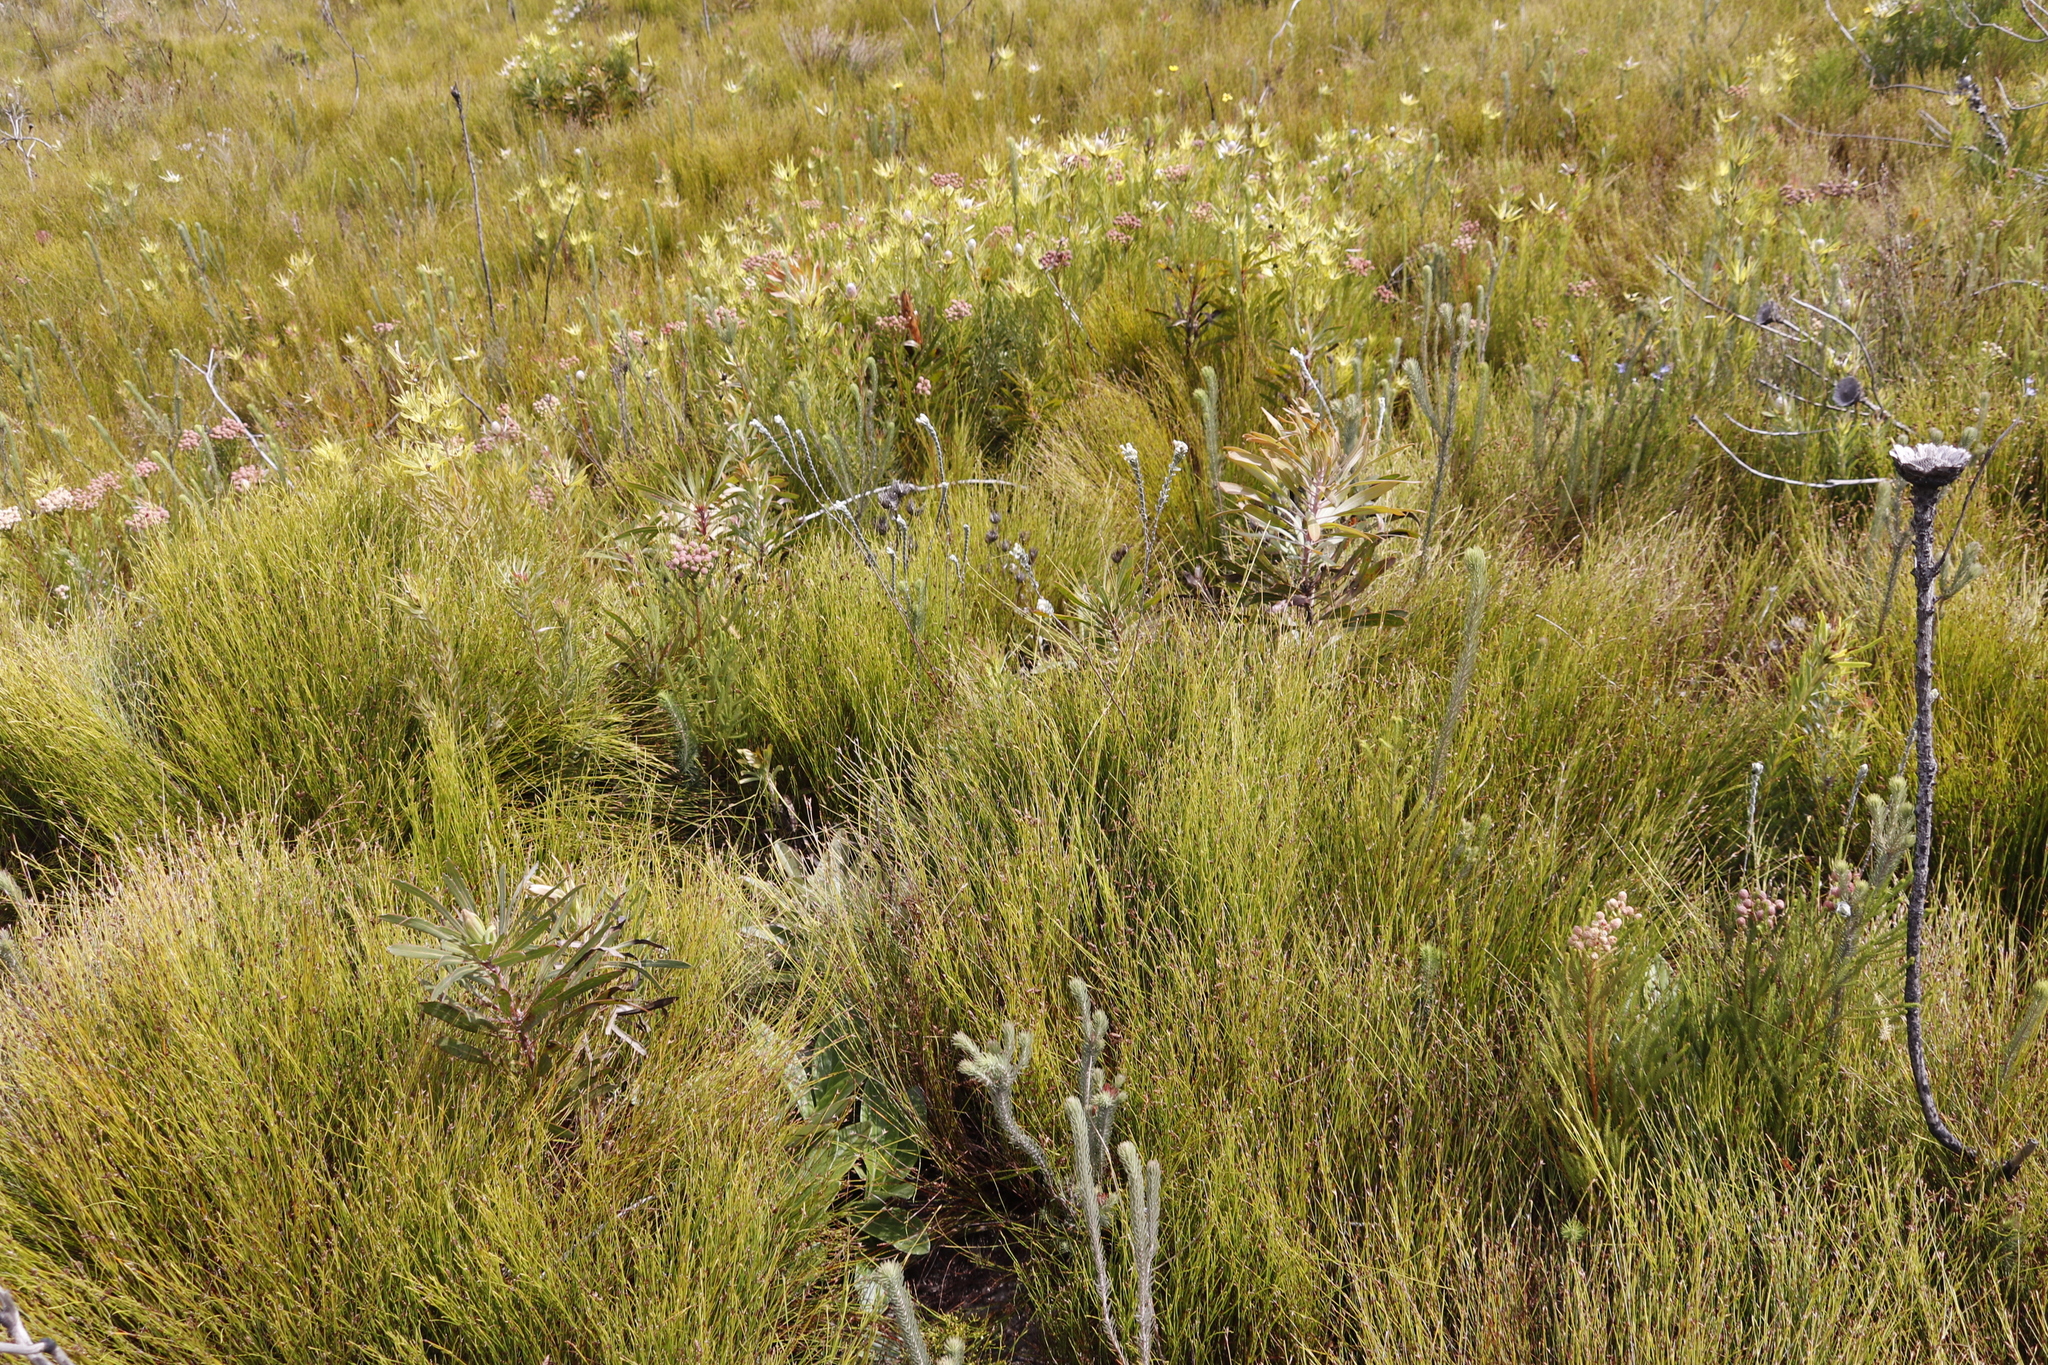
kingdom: Plantae
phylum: Tracheophyta
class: Magnoliopsida
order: Proteales
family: Proteaceae
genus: Protea
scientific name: Protea longifolia
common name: Long-leaf sugarbush
